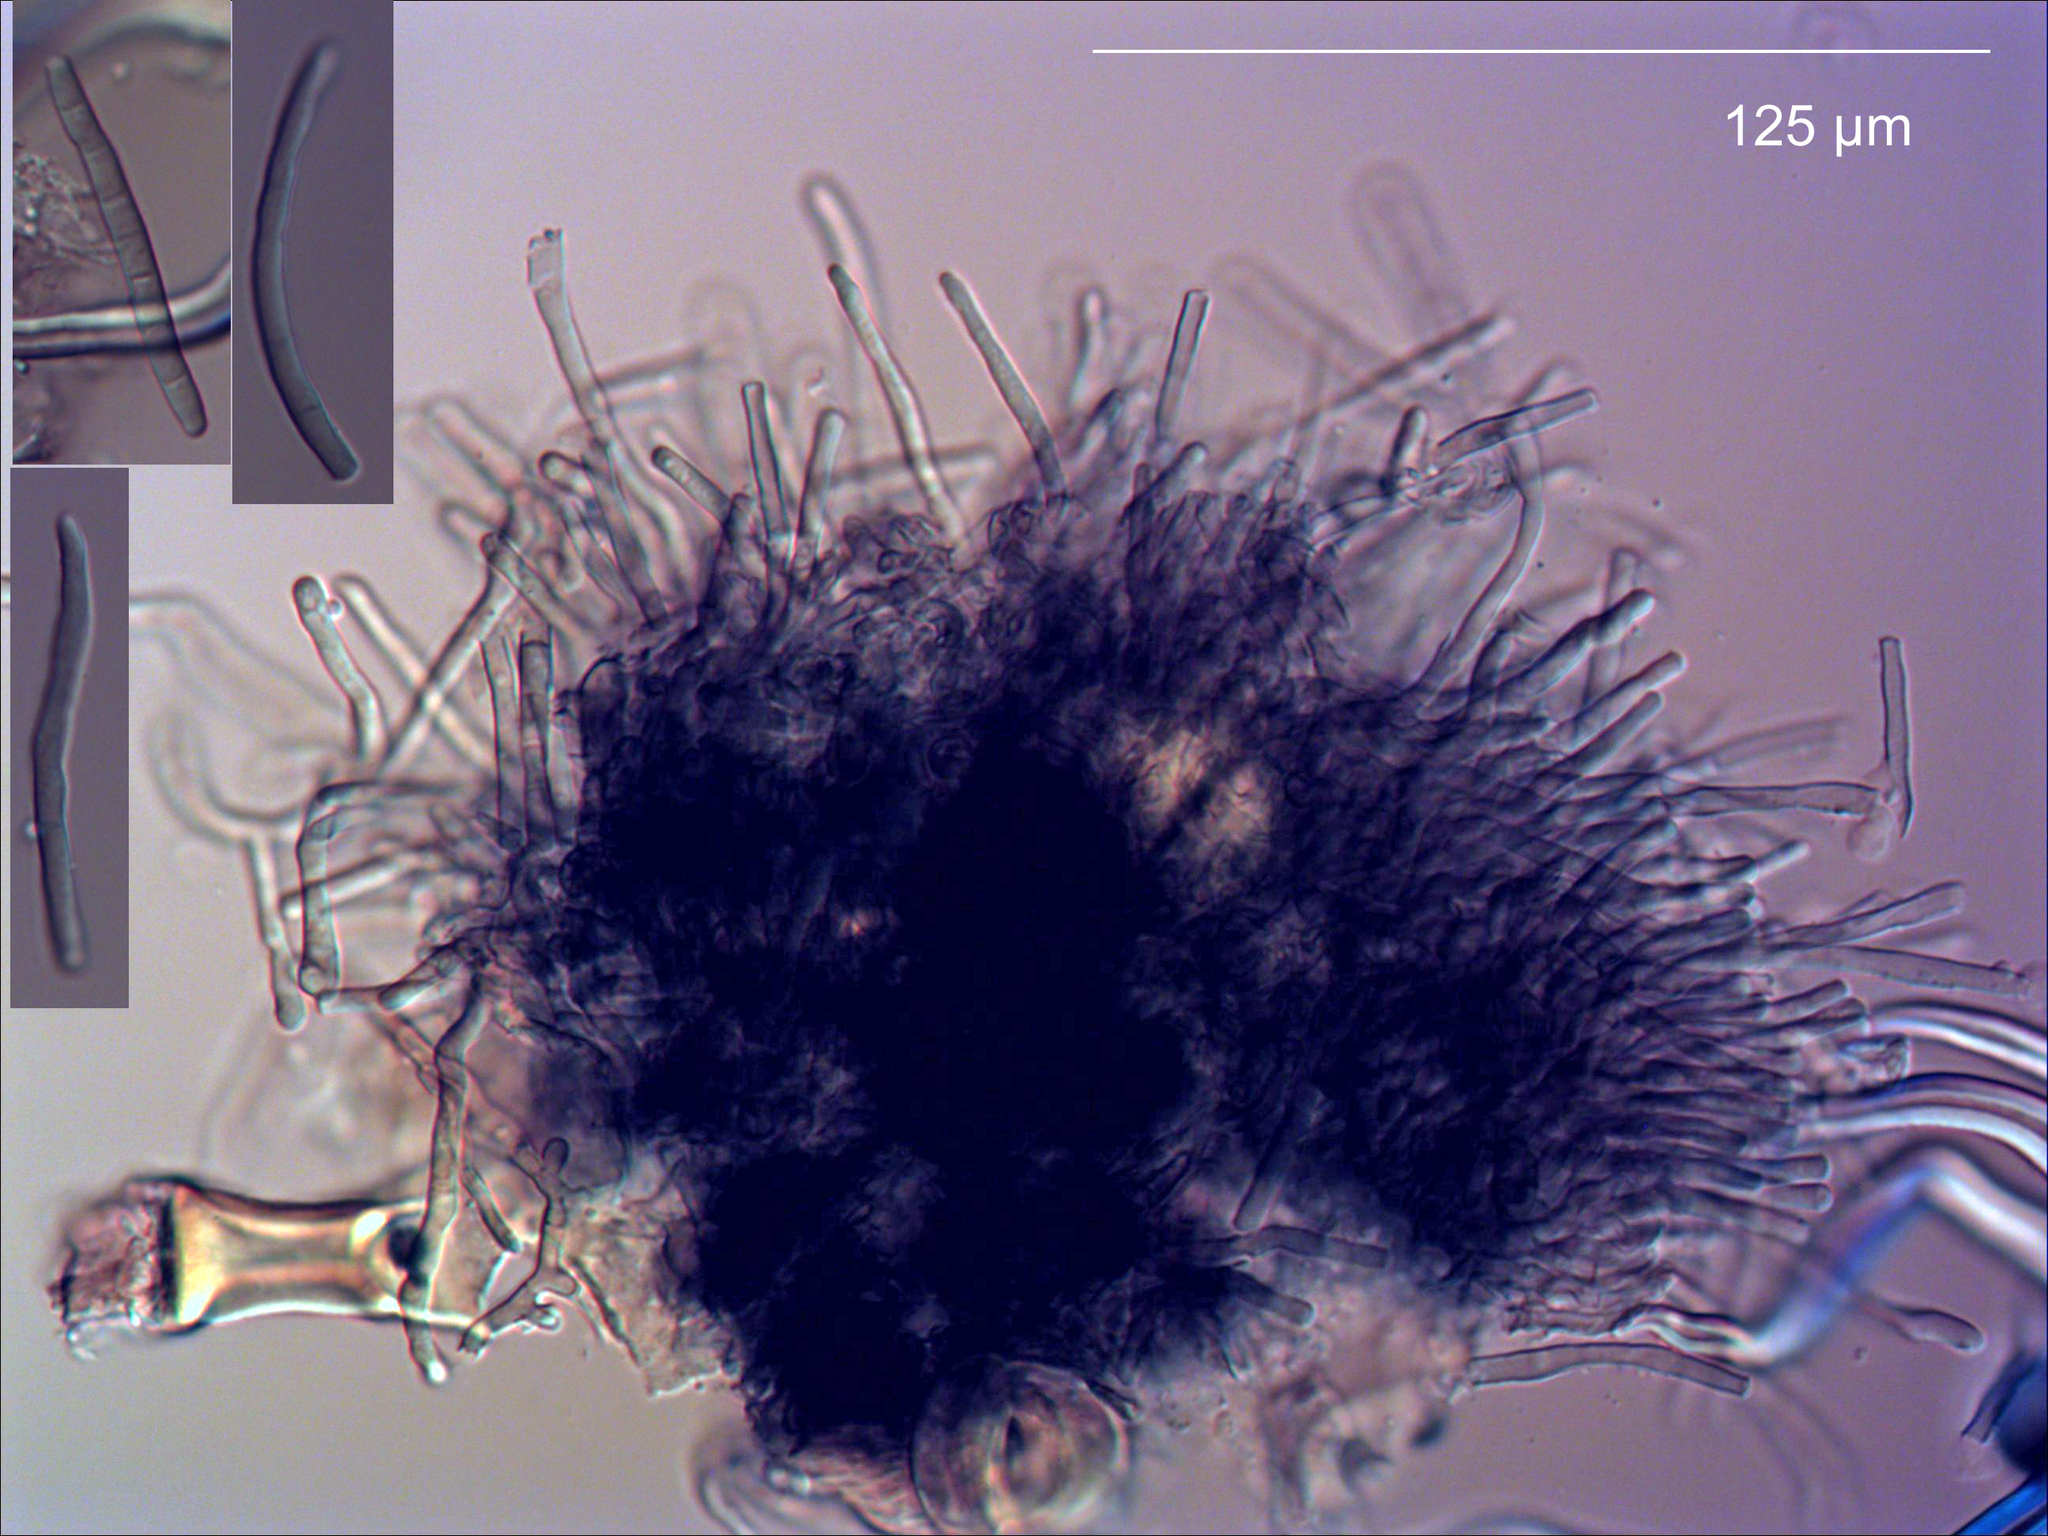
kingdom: Fungi
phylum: Ascomycota
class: Dothideomycetes
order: Mycosphaerellales
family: Mycosphaerellaceae
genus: Pseudocercospora
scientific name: Pseudocercospora oleariae
